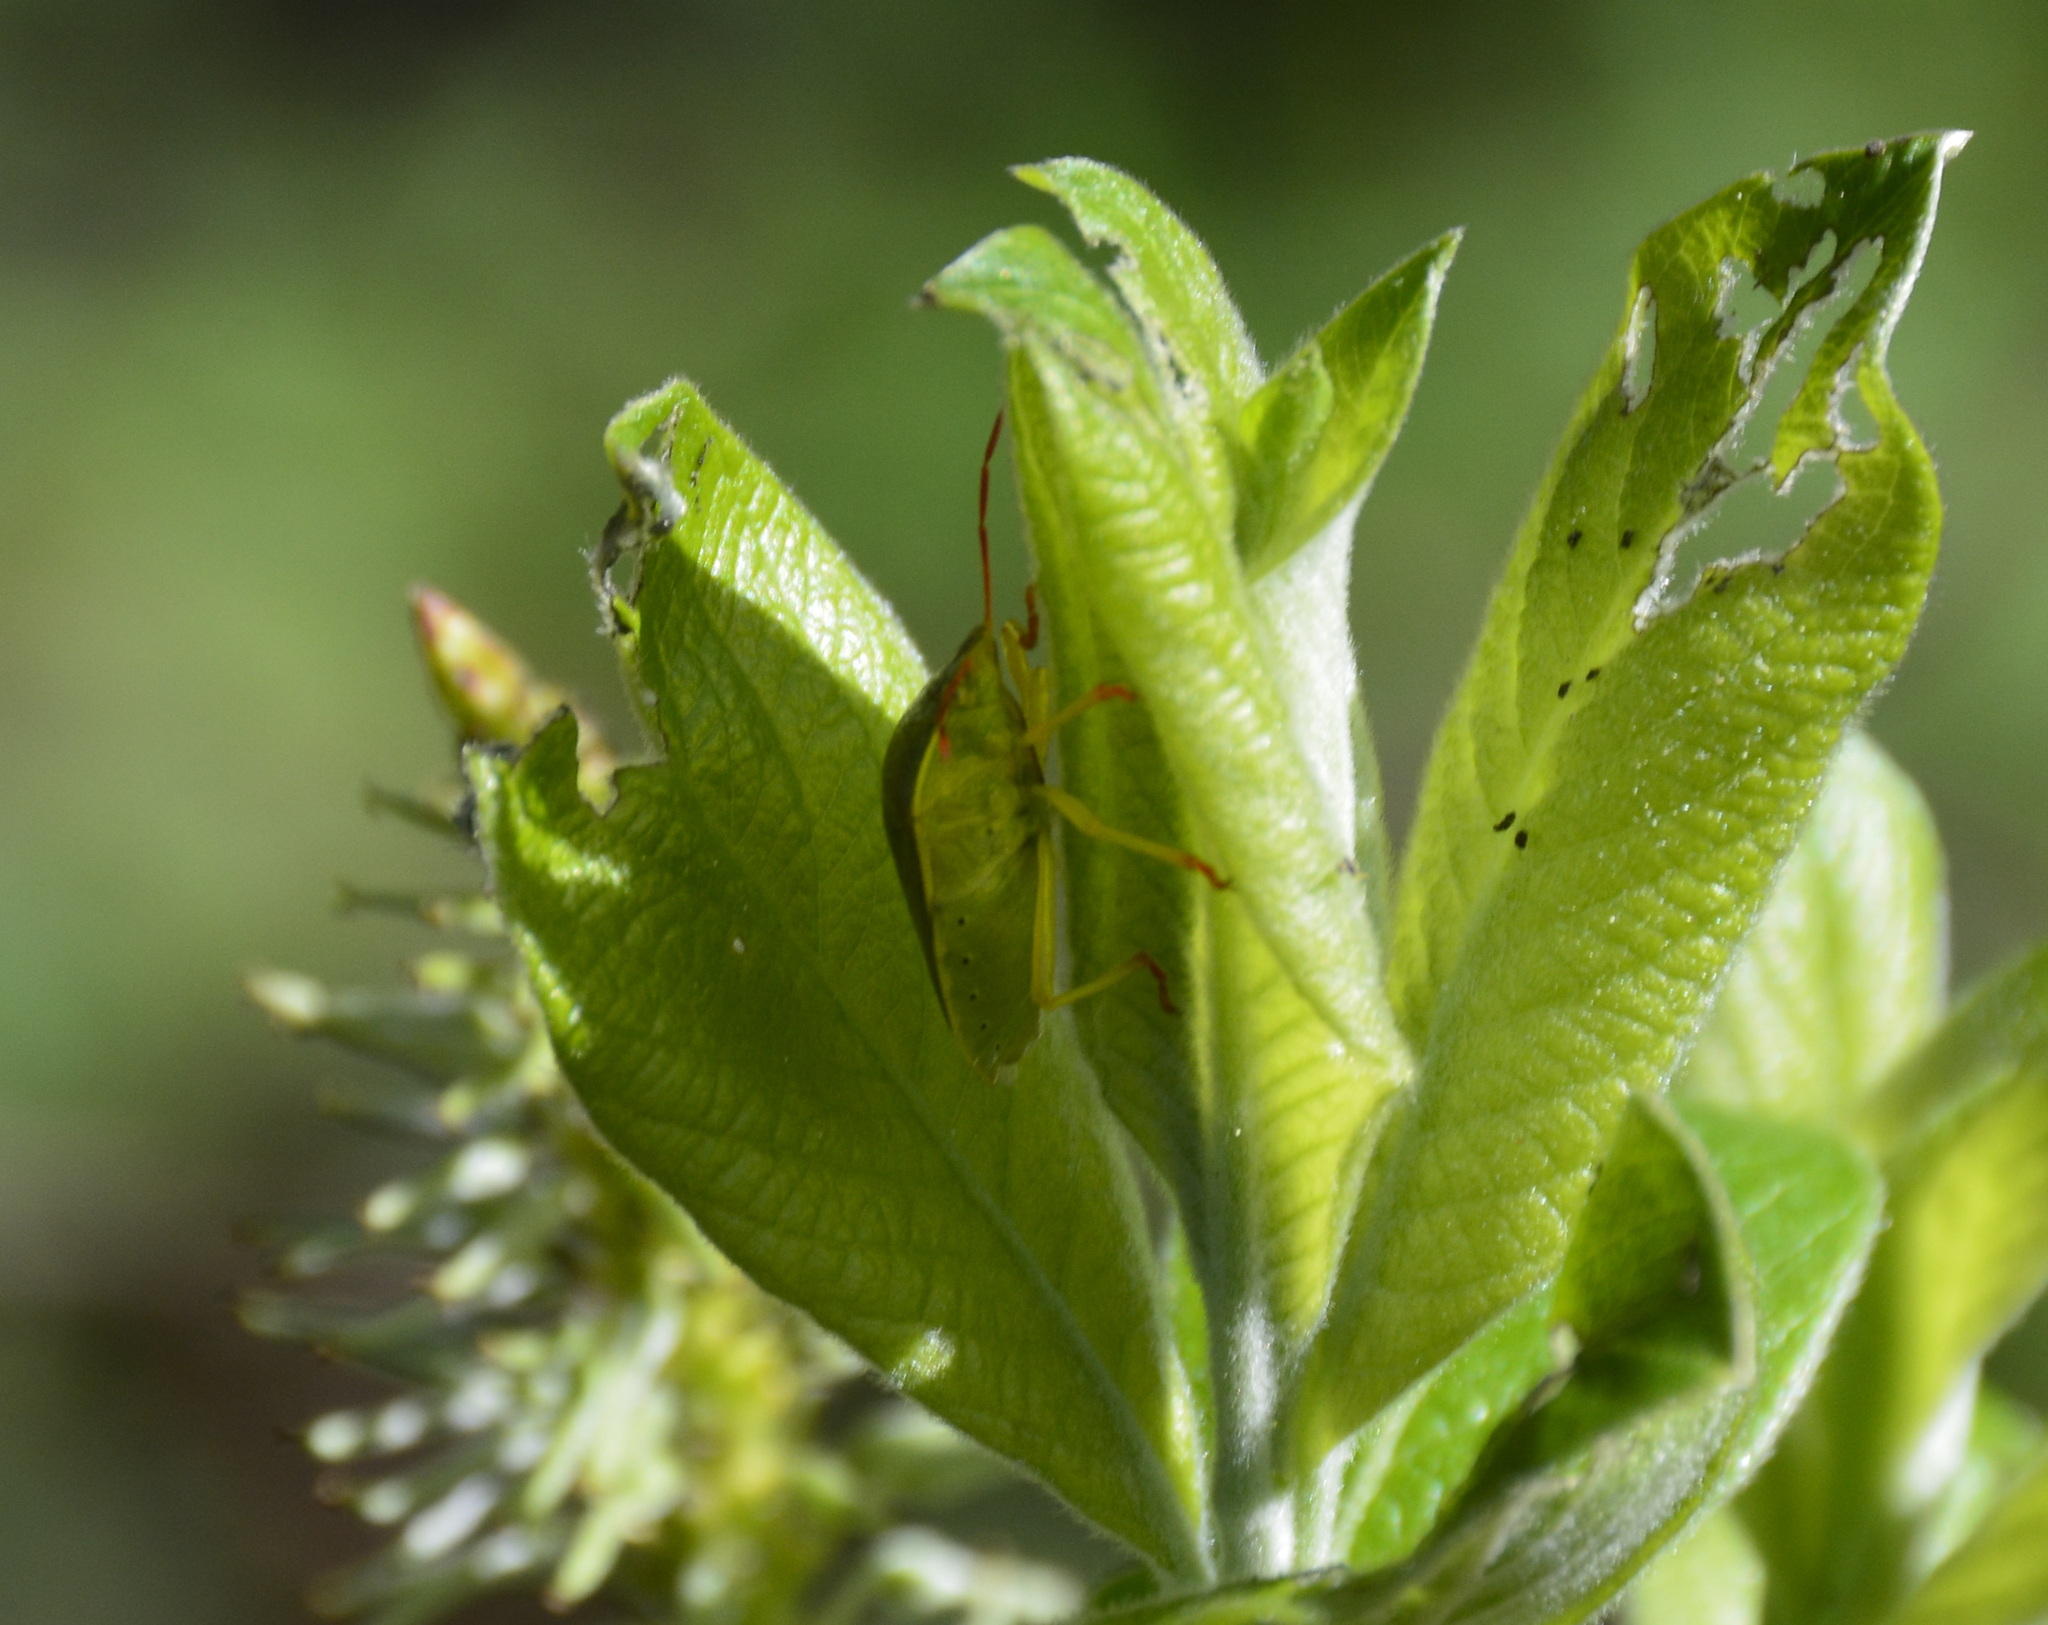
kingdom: Animalia
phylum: Arthropoda
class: Insecta
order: Hemiptera
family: Pentatomidae
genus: Piezodorus
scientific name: Piezodorus lituratus
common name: Stink bug
